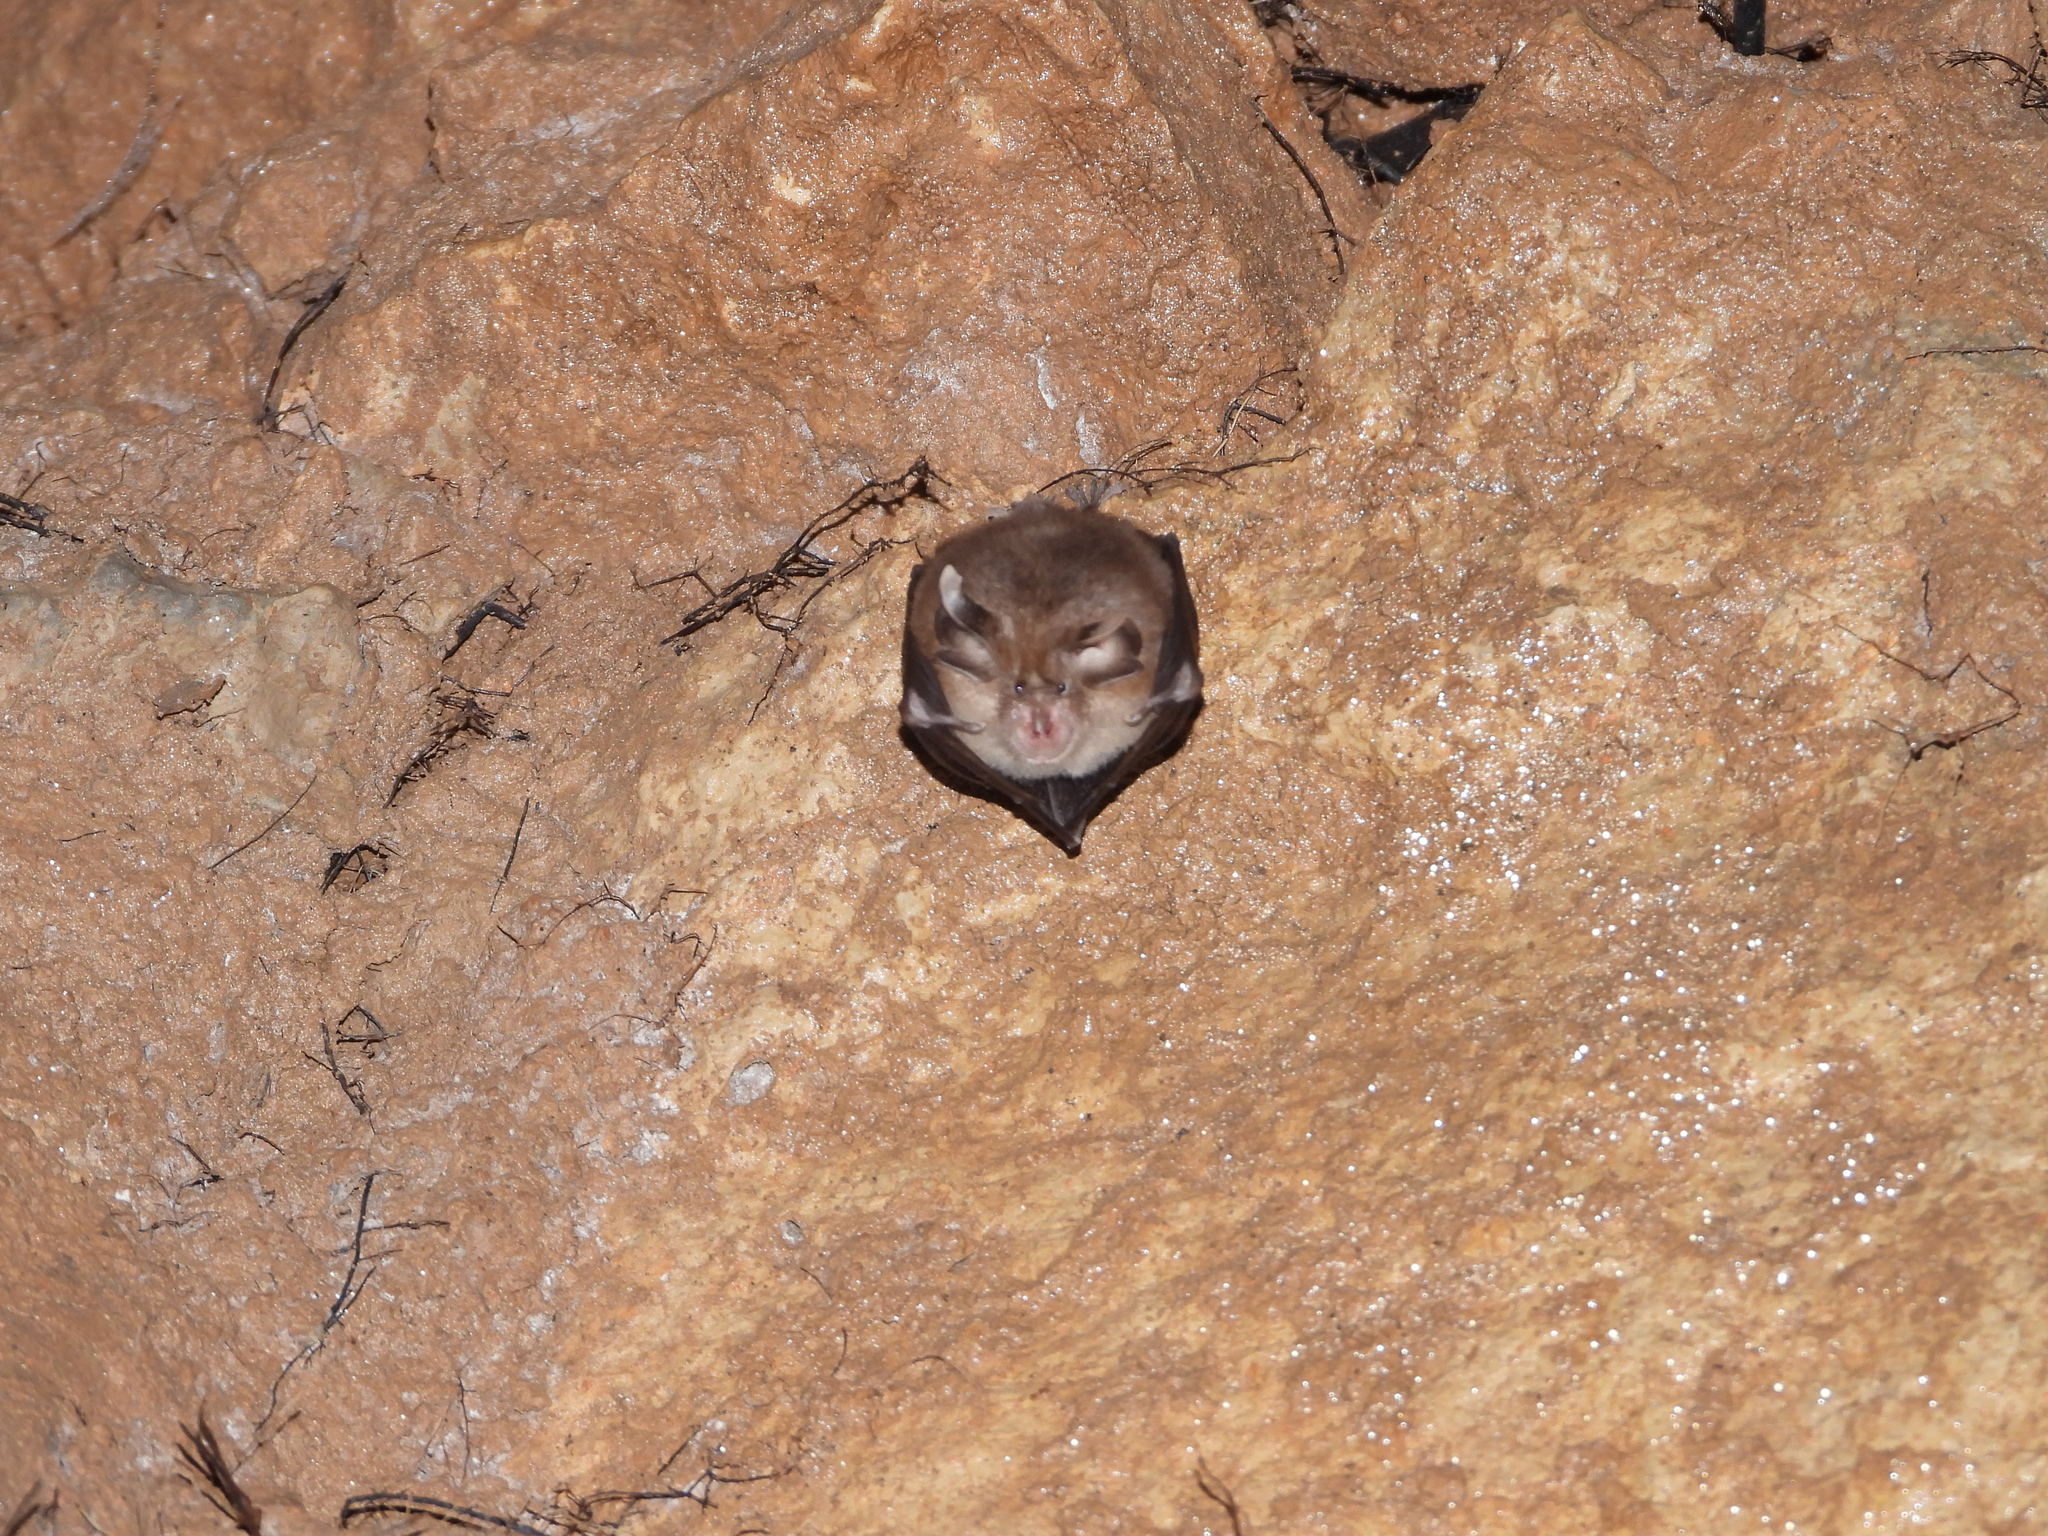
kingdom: Animalia
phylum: Chordata
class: Mammalia
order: Chiroptera
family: Rhinolophidae
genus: Rhinolophus
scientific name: Rhinolophus hipposideros
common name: Lesser horseshoe bat
